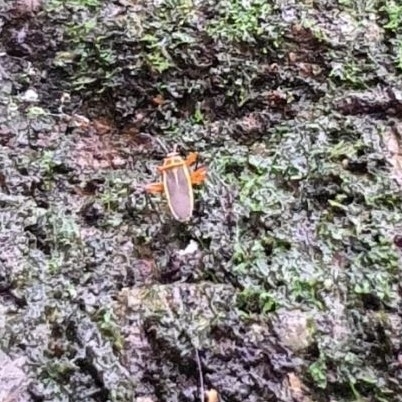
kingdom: Animalia
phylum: Arthropoda
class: Insecta
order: Hemiptera
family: Largidae
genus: Stenomacra
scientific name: Stenomacra marginella
